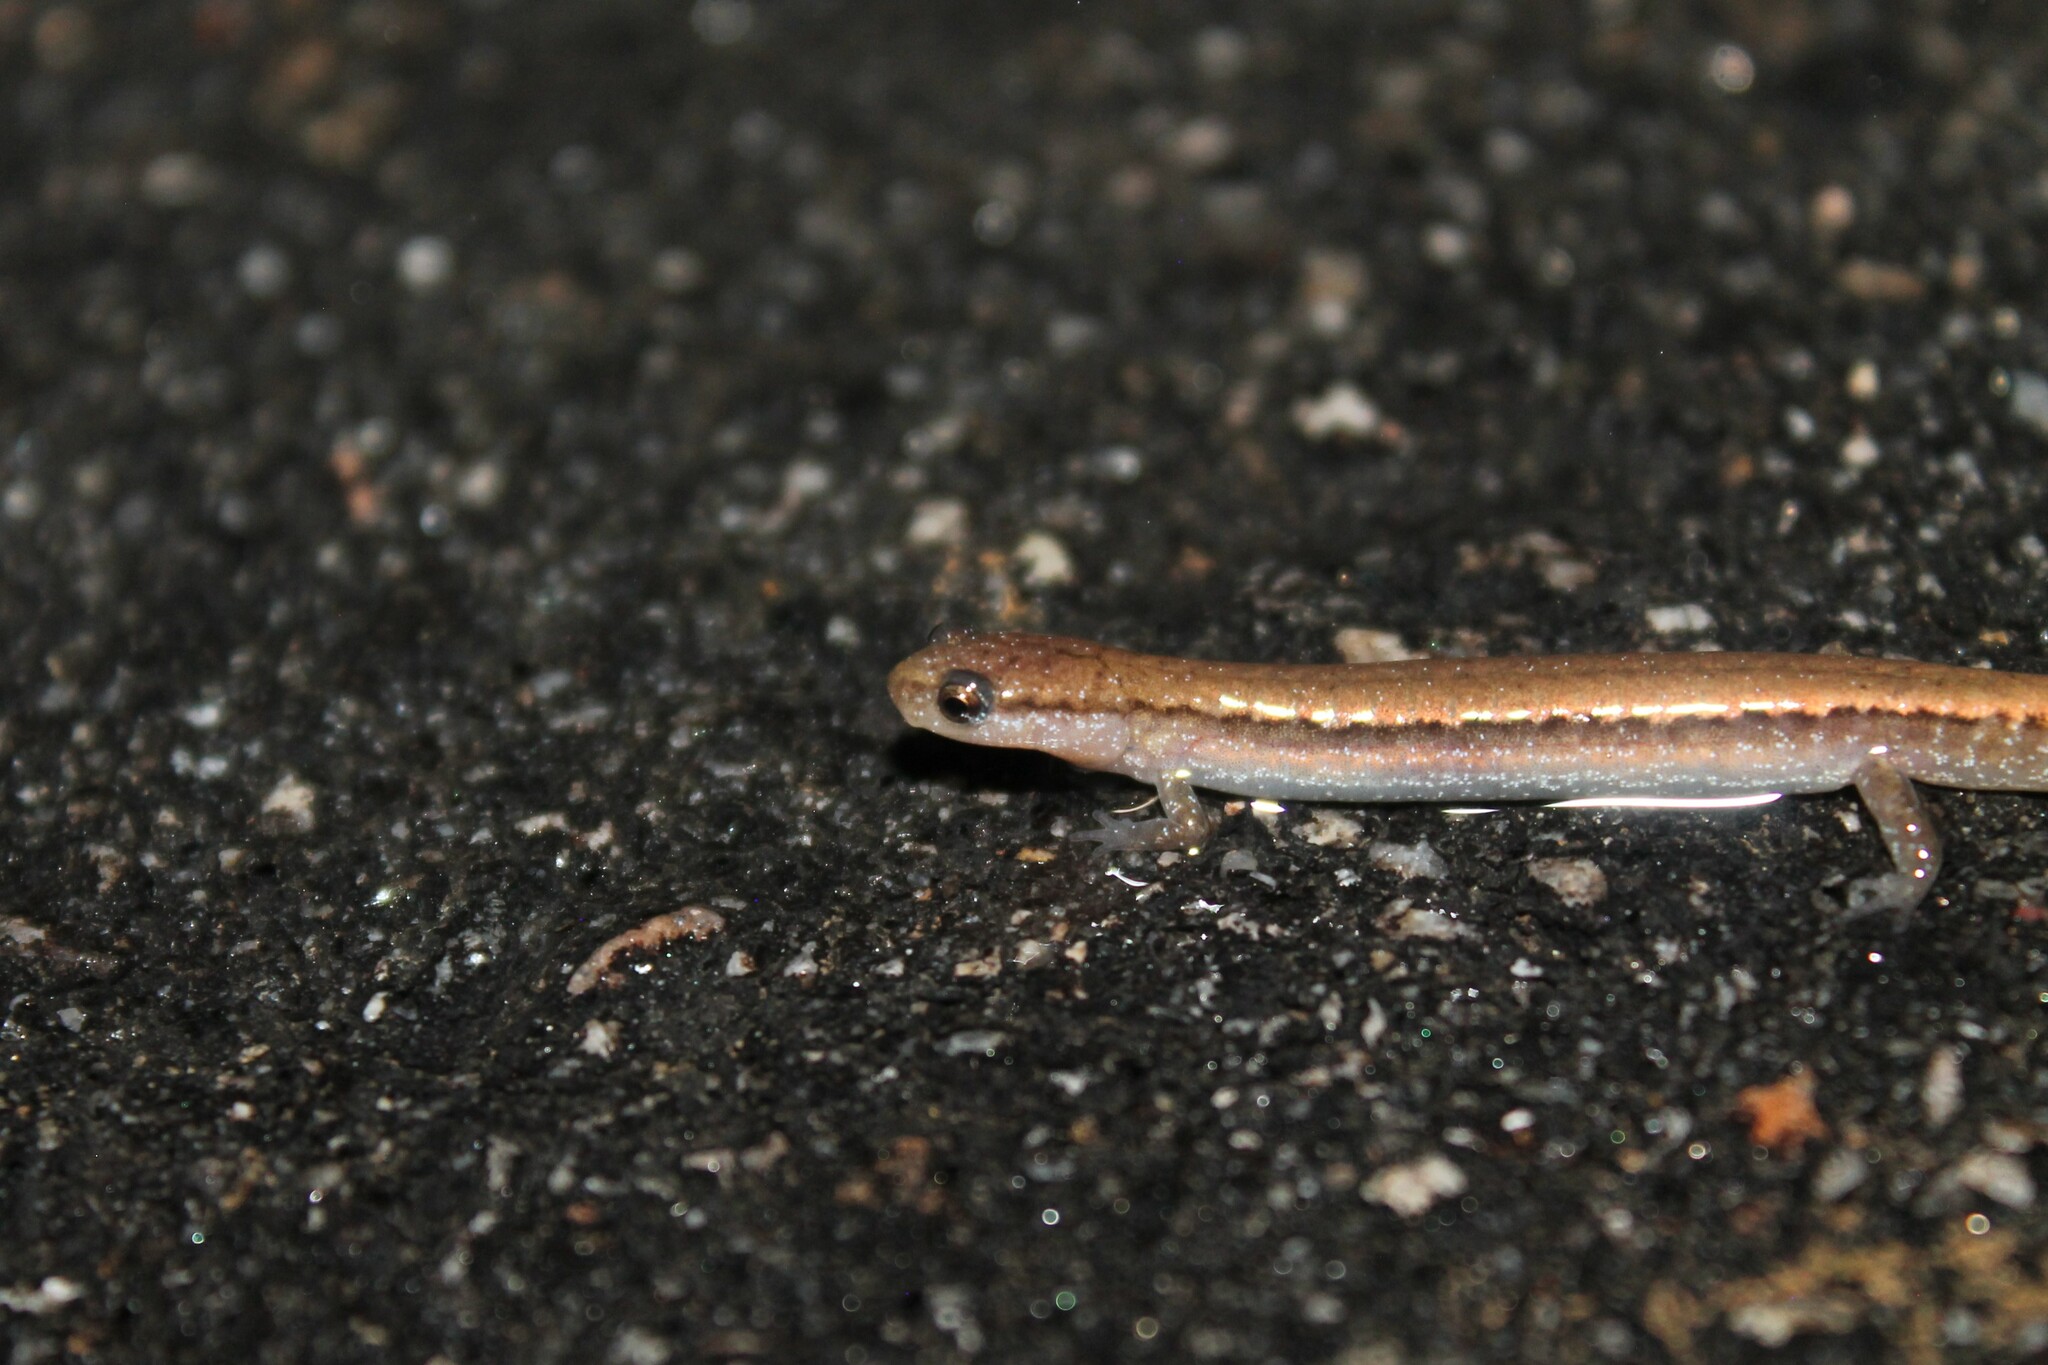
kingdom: Animalia
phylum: Chordata
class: Amphibia
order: Caudata
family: Plethodontidae
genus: Eurycea
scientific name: Eurycea quadridigitata
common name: Dwarf salamander
